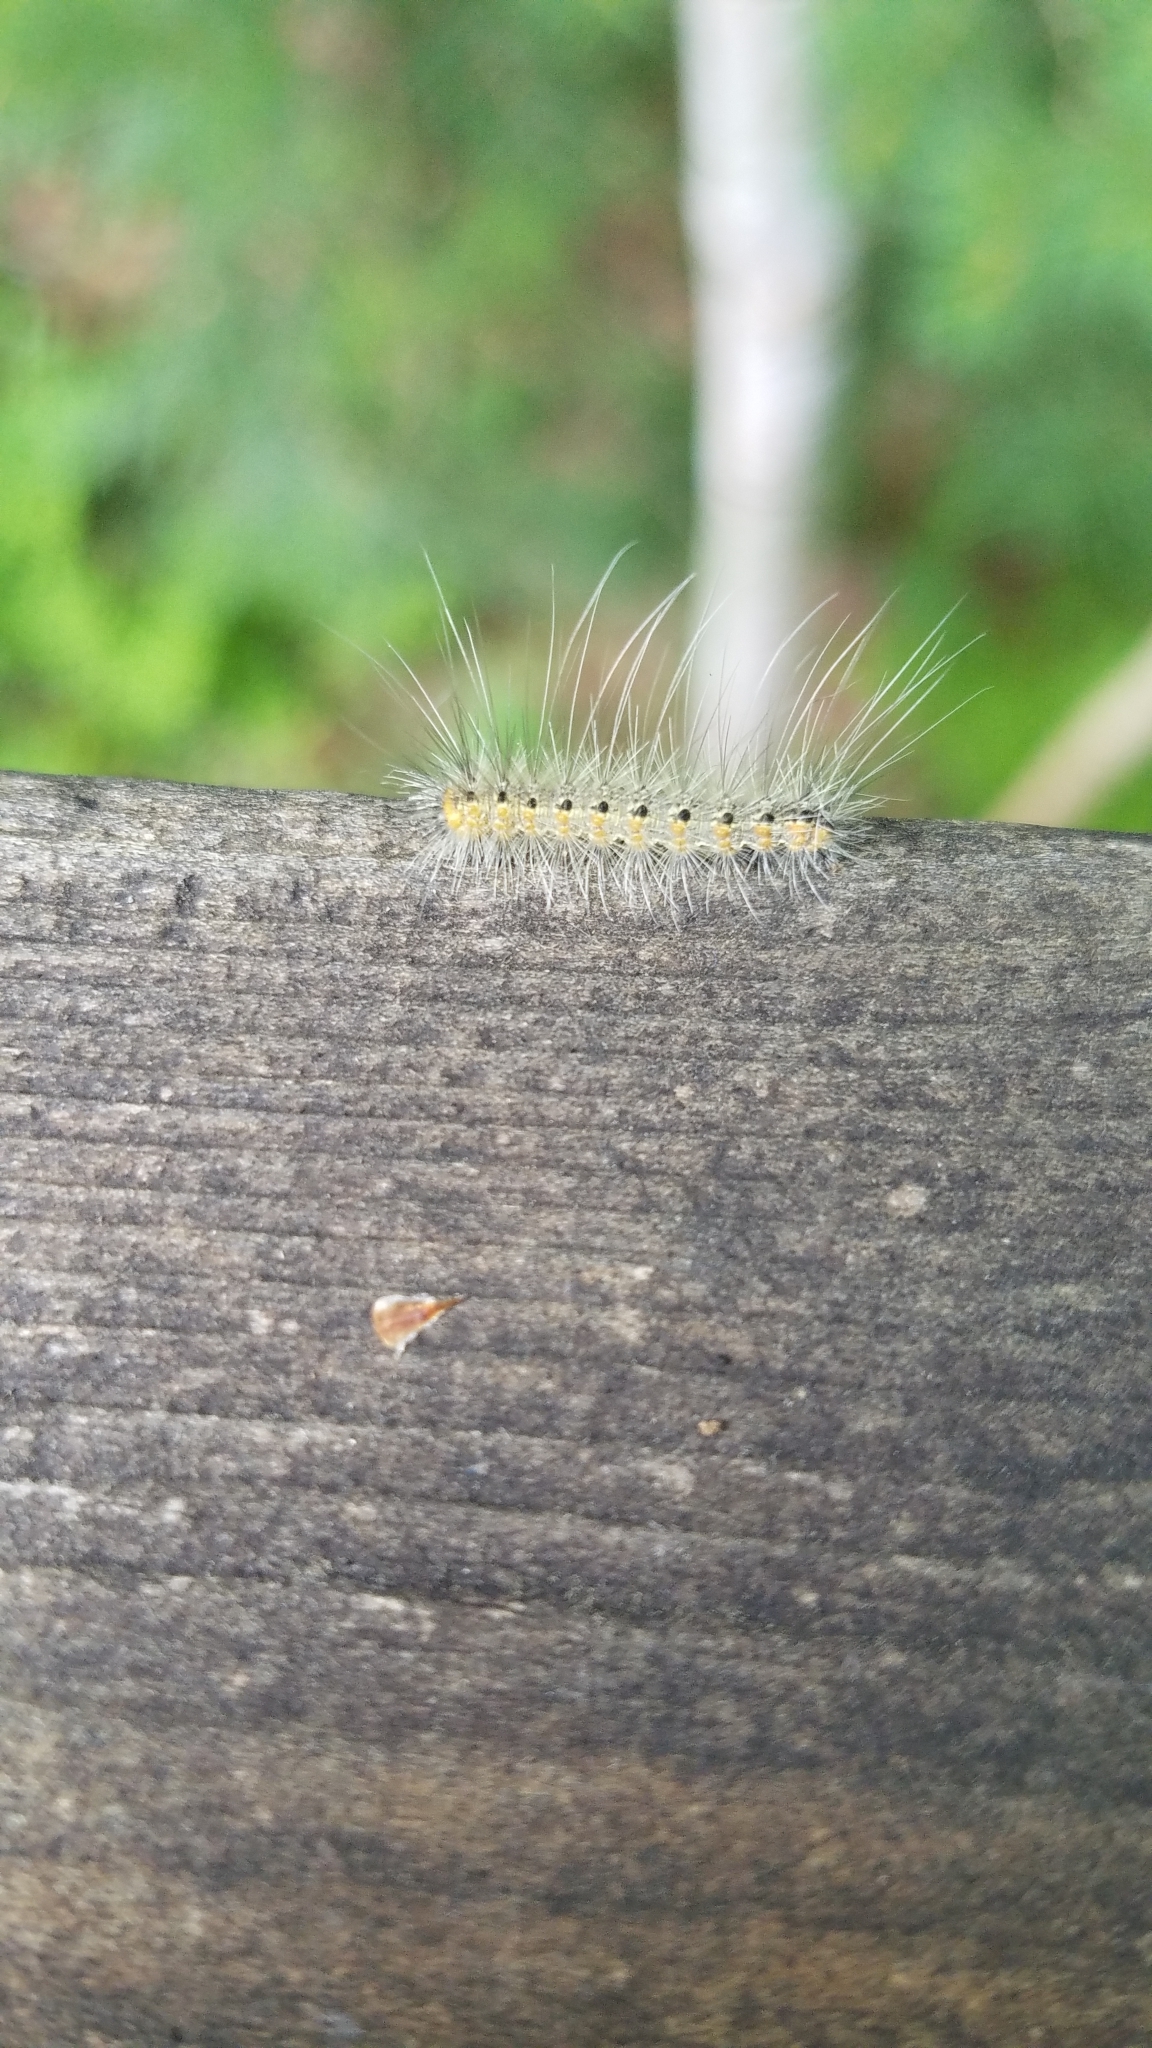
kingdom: Animalia
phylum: Arthropoda
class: Insecta
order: Lepidoptera
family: Erebidae
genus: Hyphantria
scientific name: Hyphantria cunea
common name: American white moth
